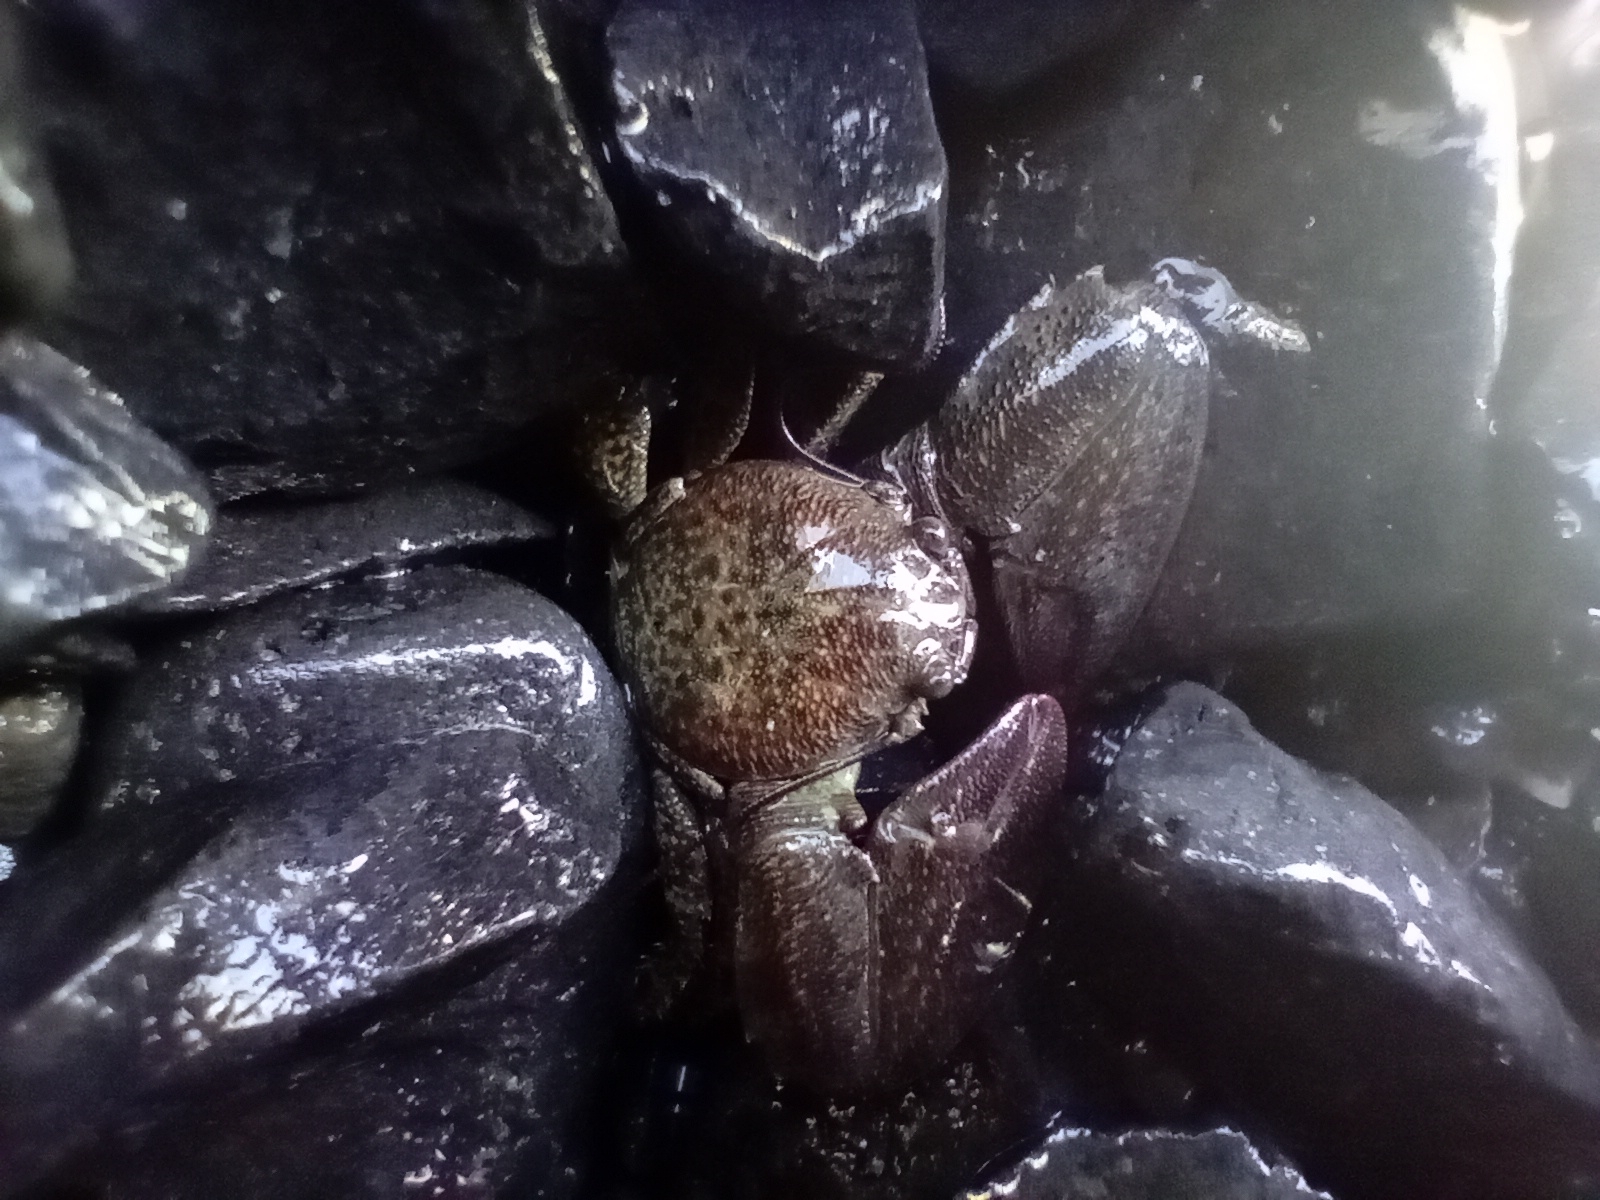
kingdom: Animalia
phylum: Arthropoda
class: Malacostraca
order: Decapoda
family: Porcellanidae
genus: Petrolisthes
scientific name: Petrolisthes elongatus
